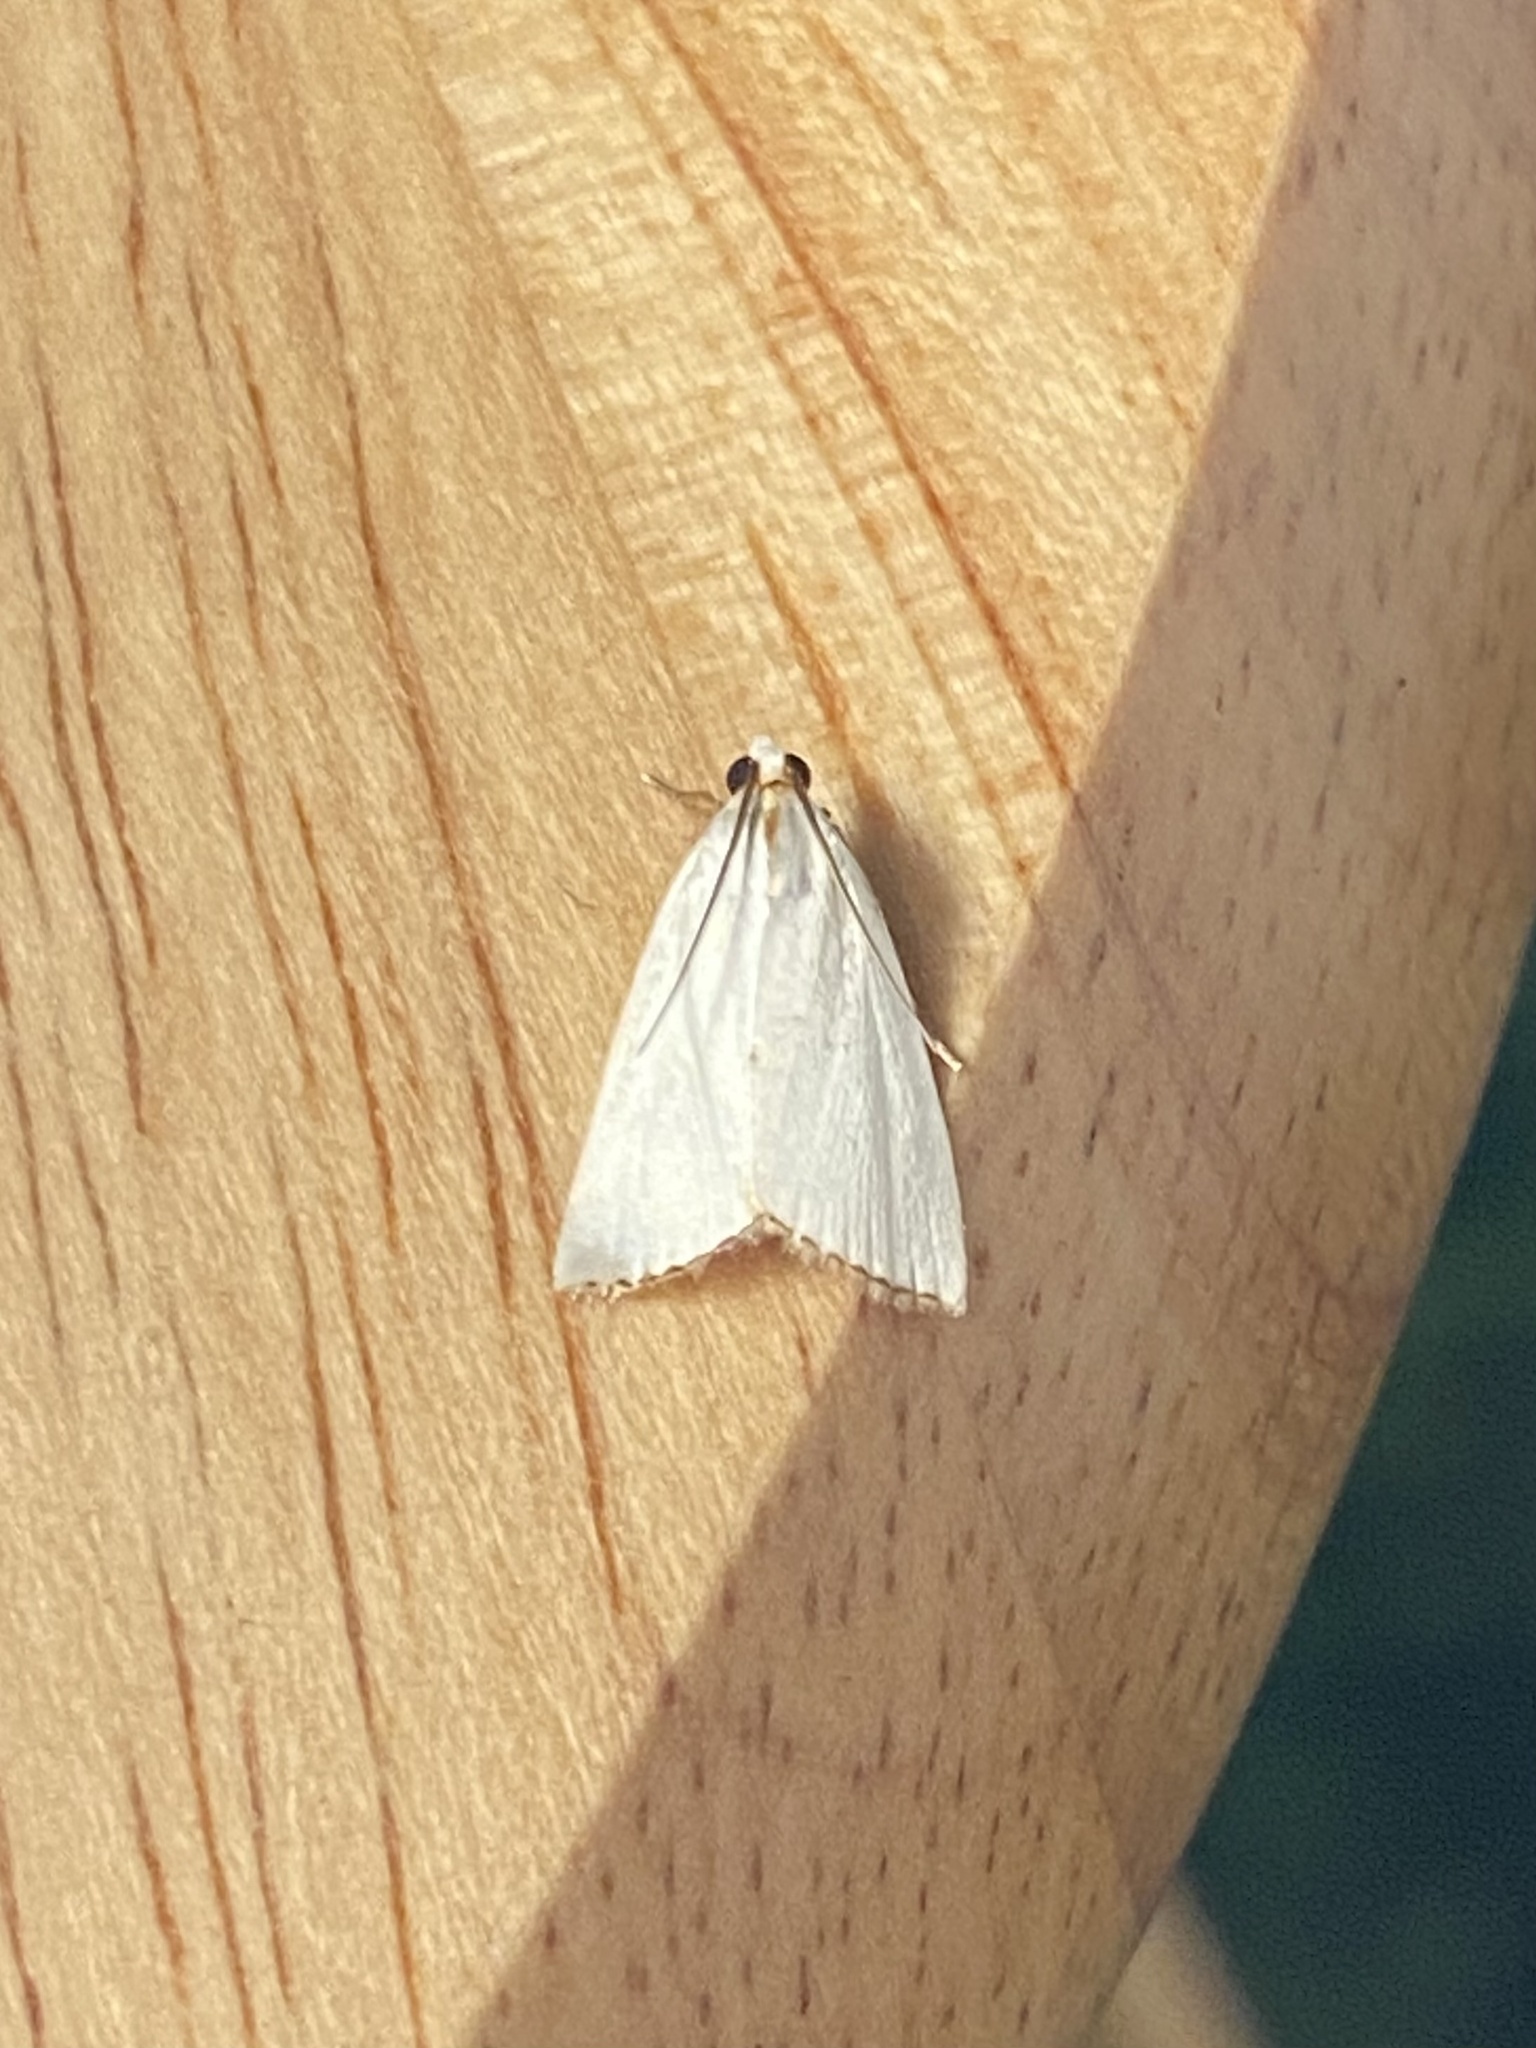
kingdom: Animalia
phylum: Arthropoda
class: Insecta
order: Lepidoptera
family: Crambidae
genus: Argyria
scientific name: Argyria nivalis
